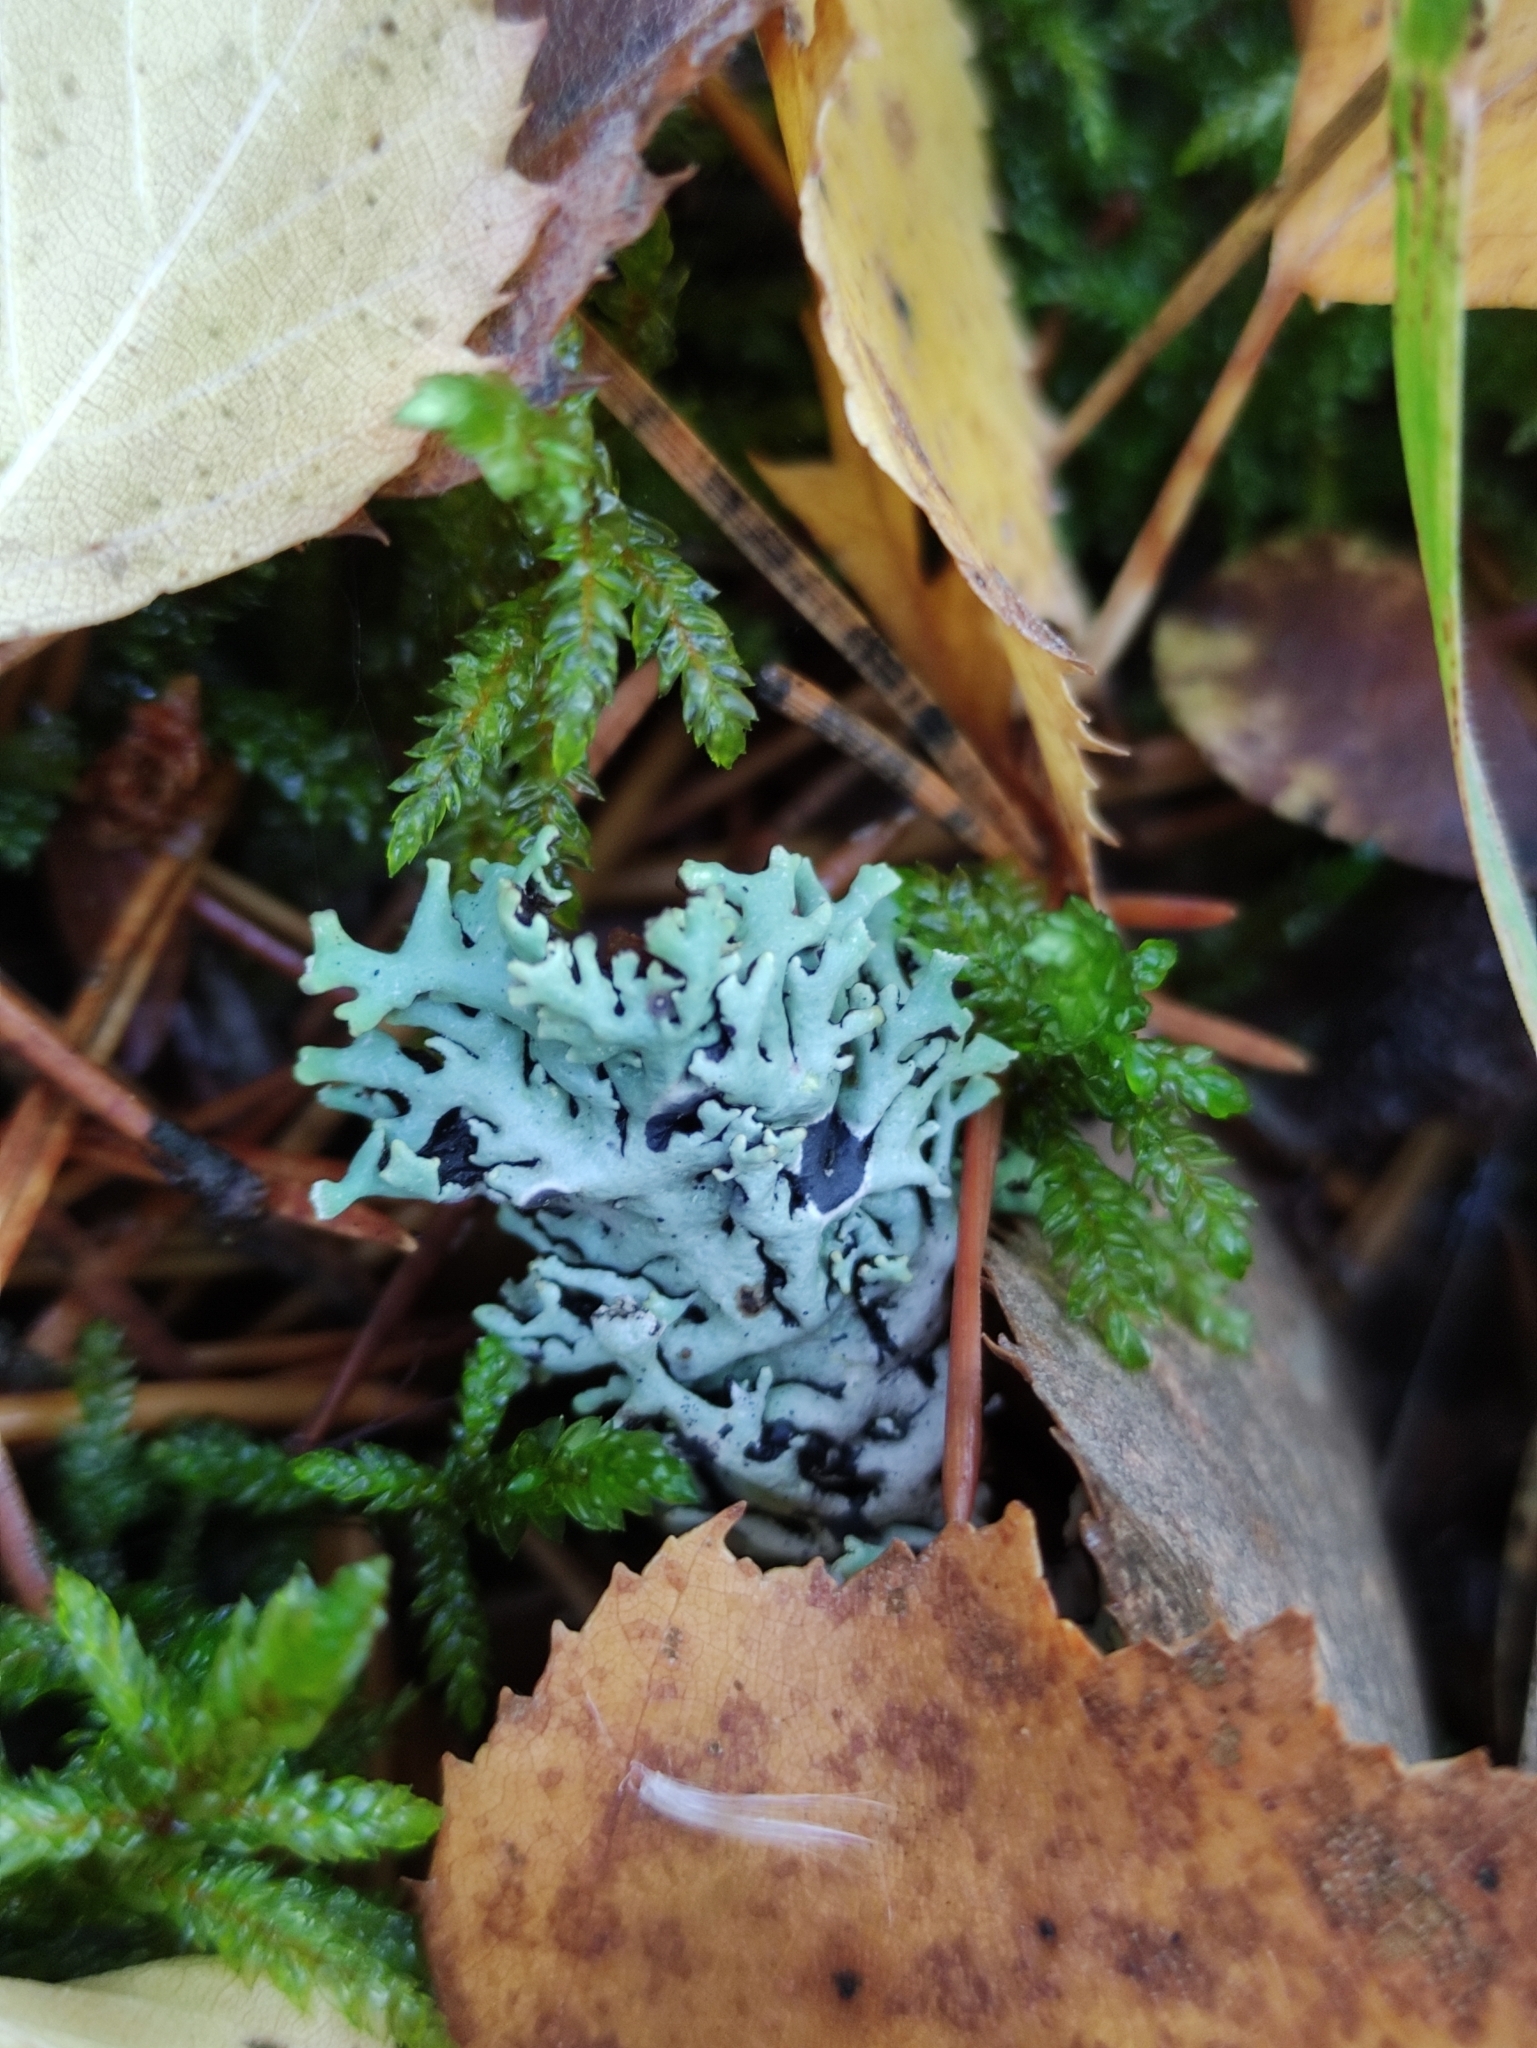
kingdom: Fungi
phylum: Ascomycota
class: Lecanoromycetes
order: Lecanorales
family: Parmeliaceae
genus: Hypogymnia
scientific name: Hypogymnia physodes
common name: Dark crottle
